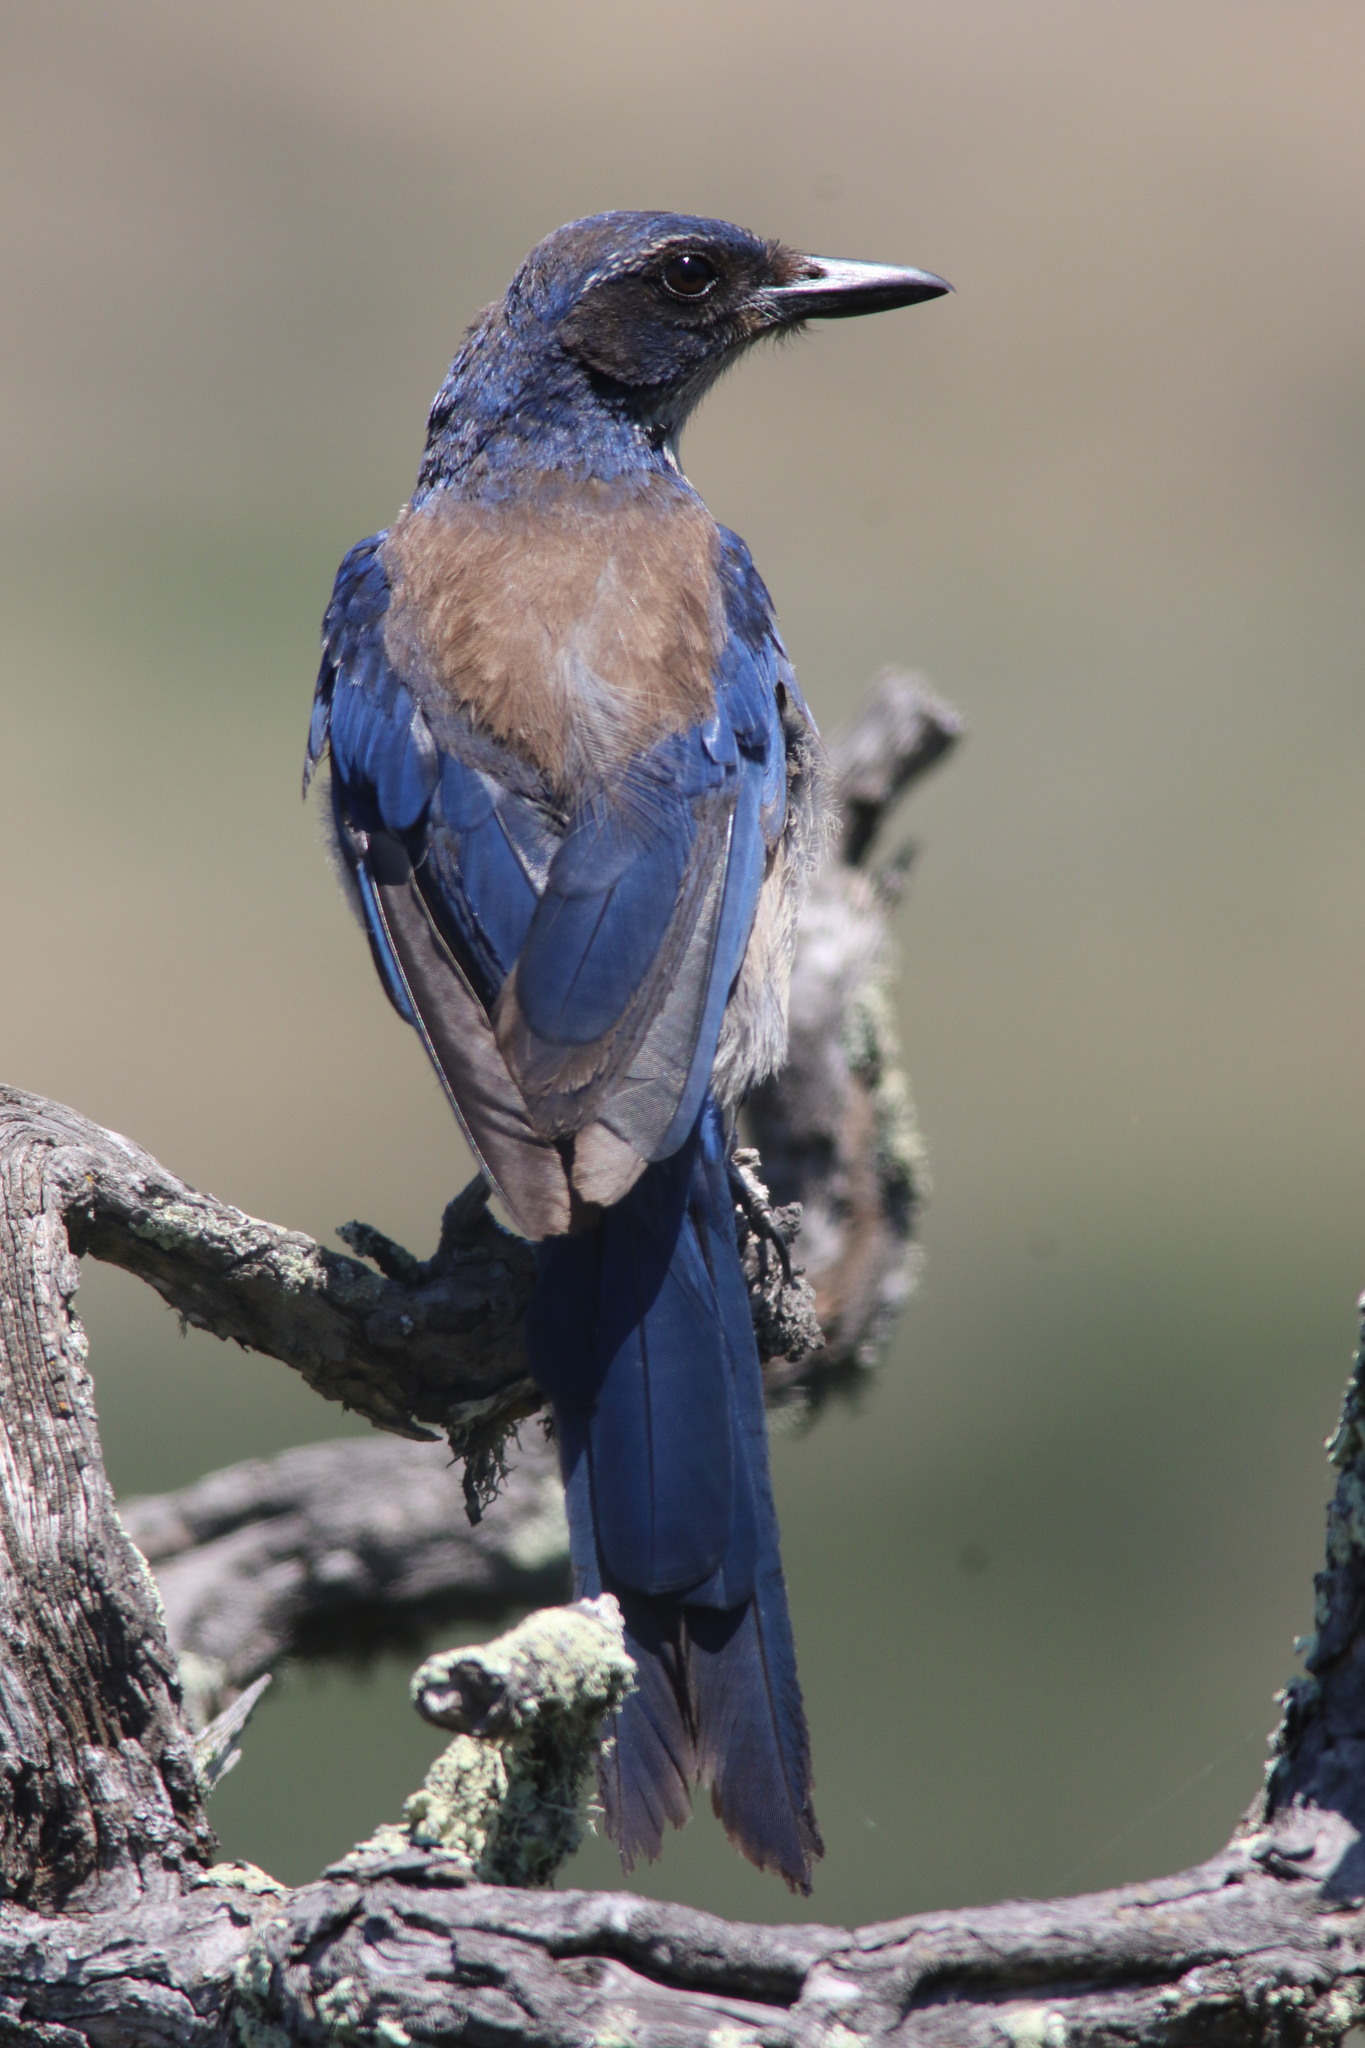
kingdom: Animalia
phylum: Chordata
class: Aves
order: Passeriformes
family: Corvidae
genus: Aphelocoma
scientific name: Aphelocoma insularis
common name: Island scrub-jay
